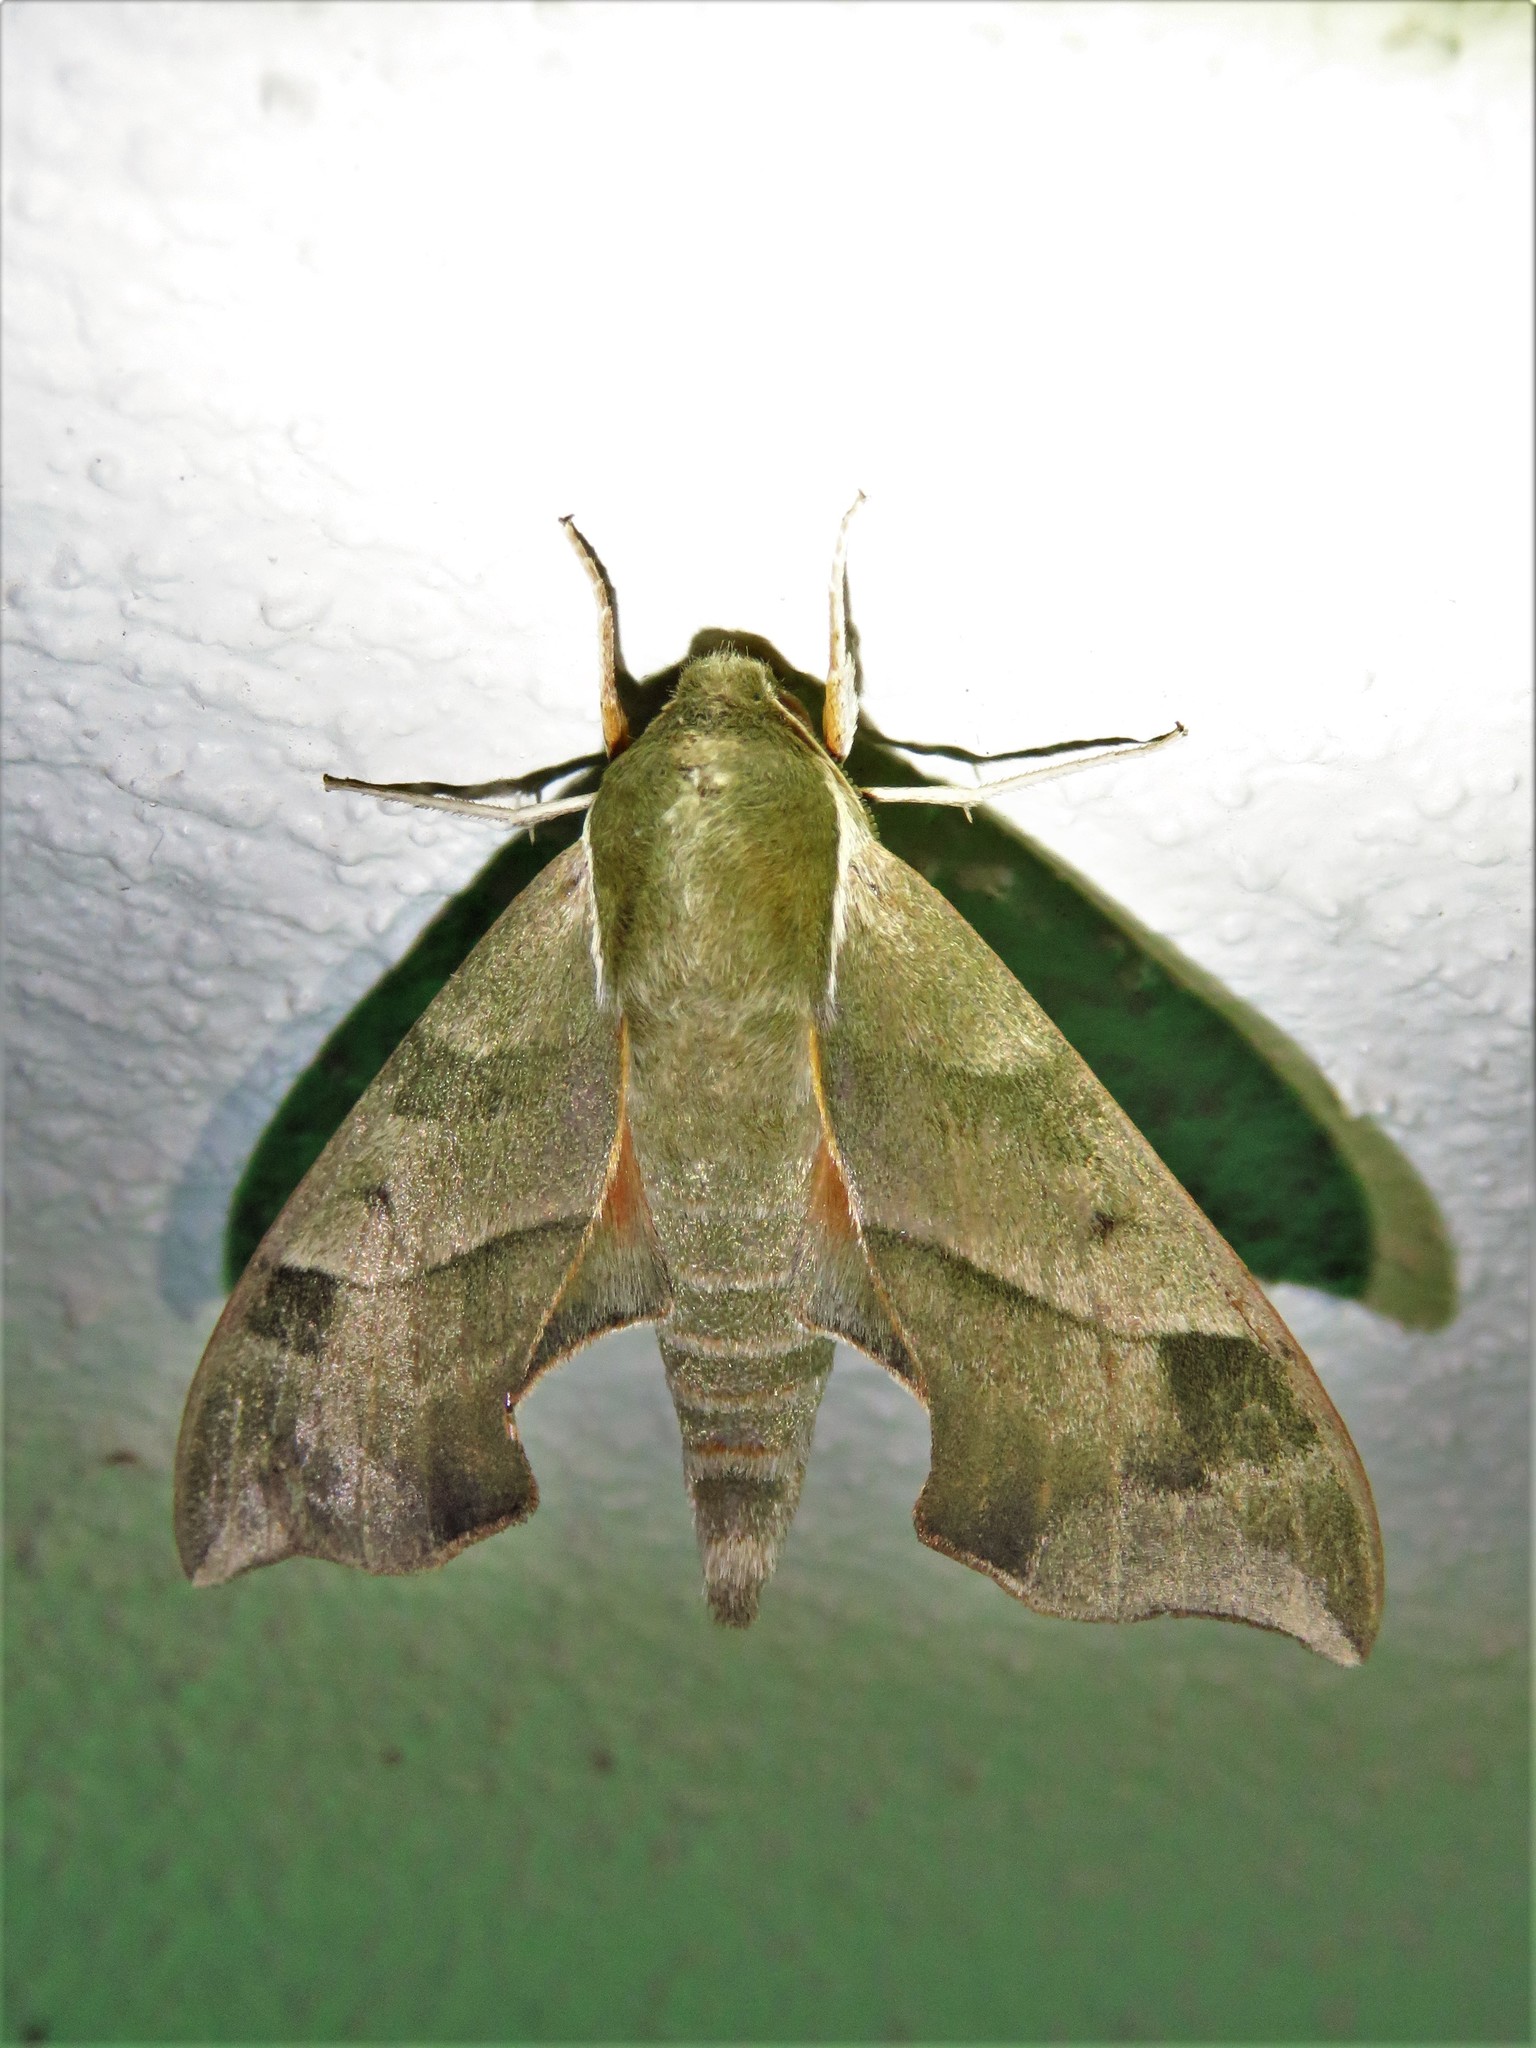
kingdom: Animalia
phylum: Arthropoda
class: Insecta
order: Lepidoptera
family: Sphingidae
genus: Darapsa
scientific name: Darapsa myron
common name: Hog sphinx
